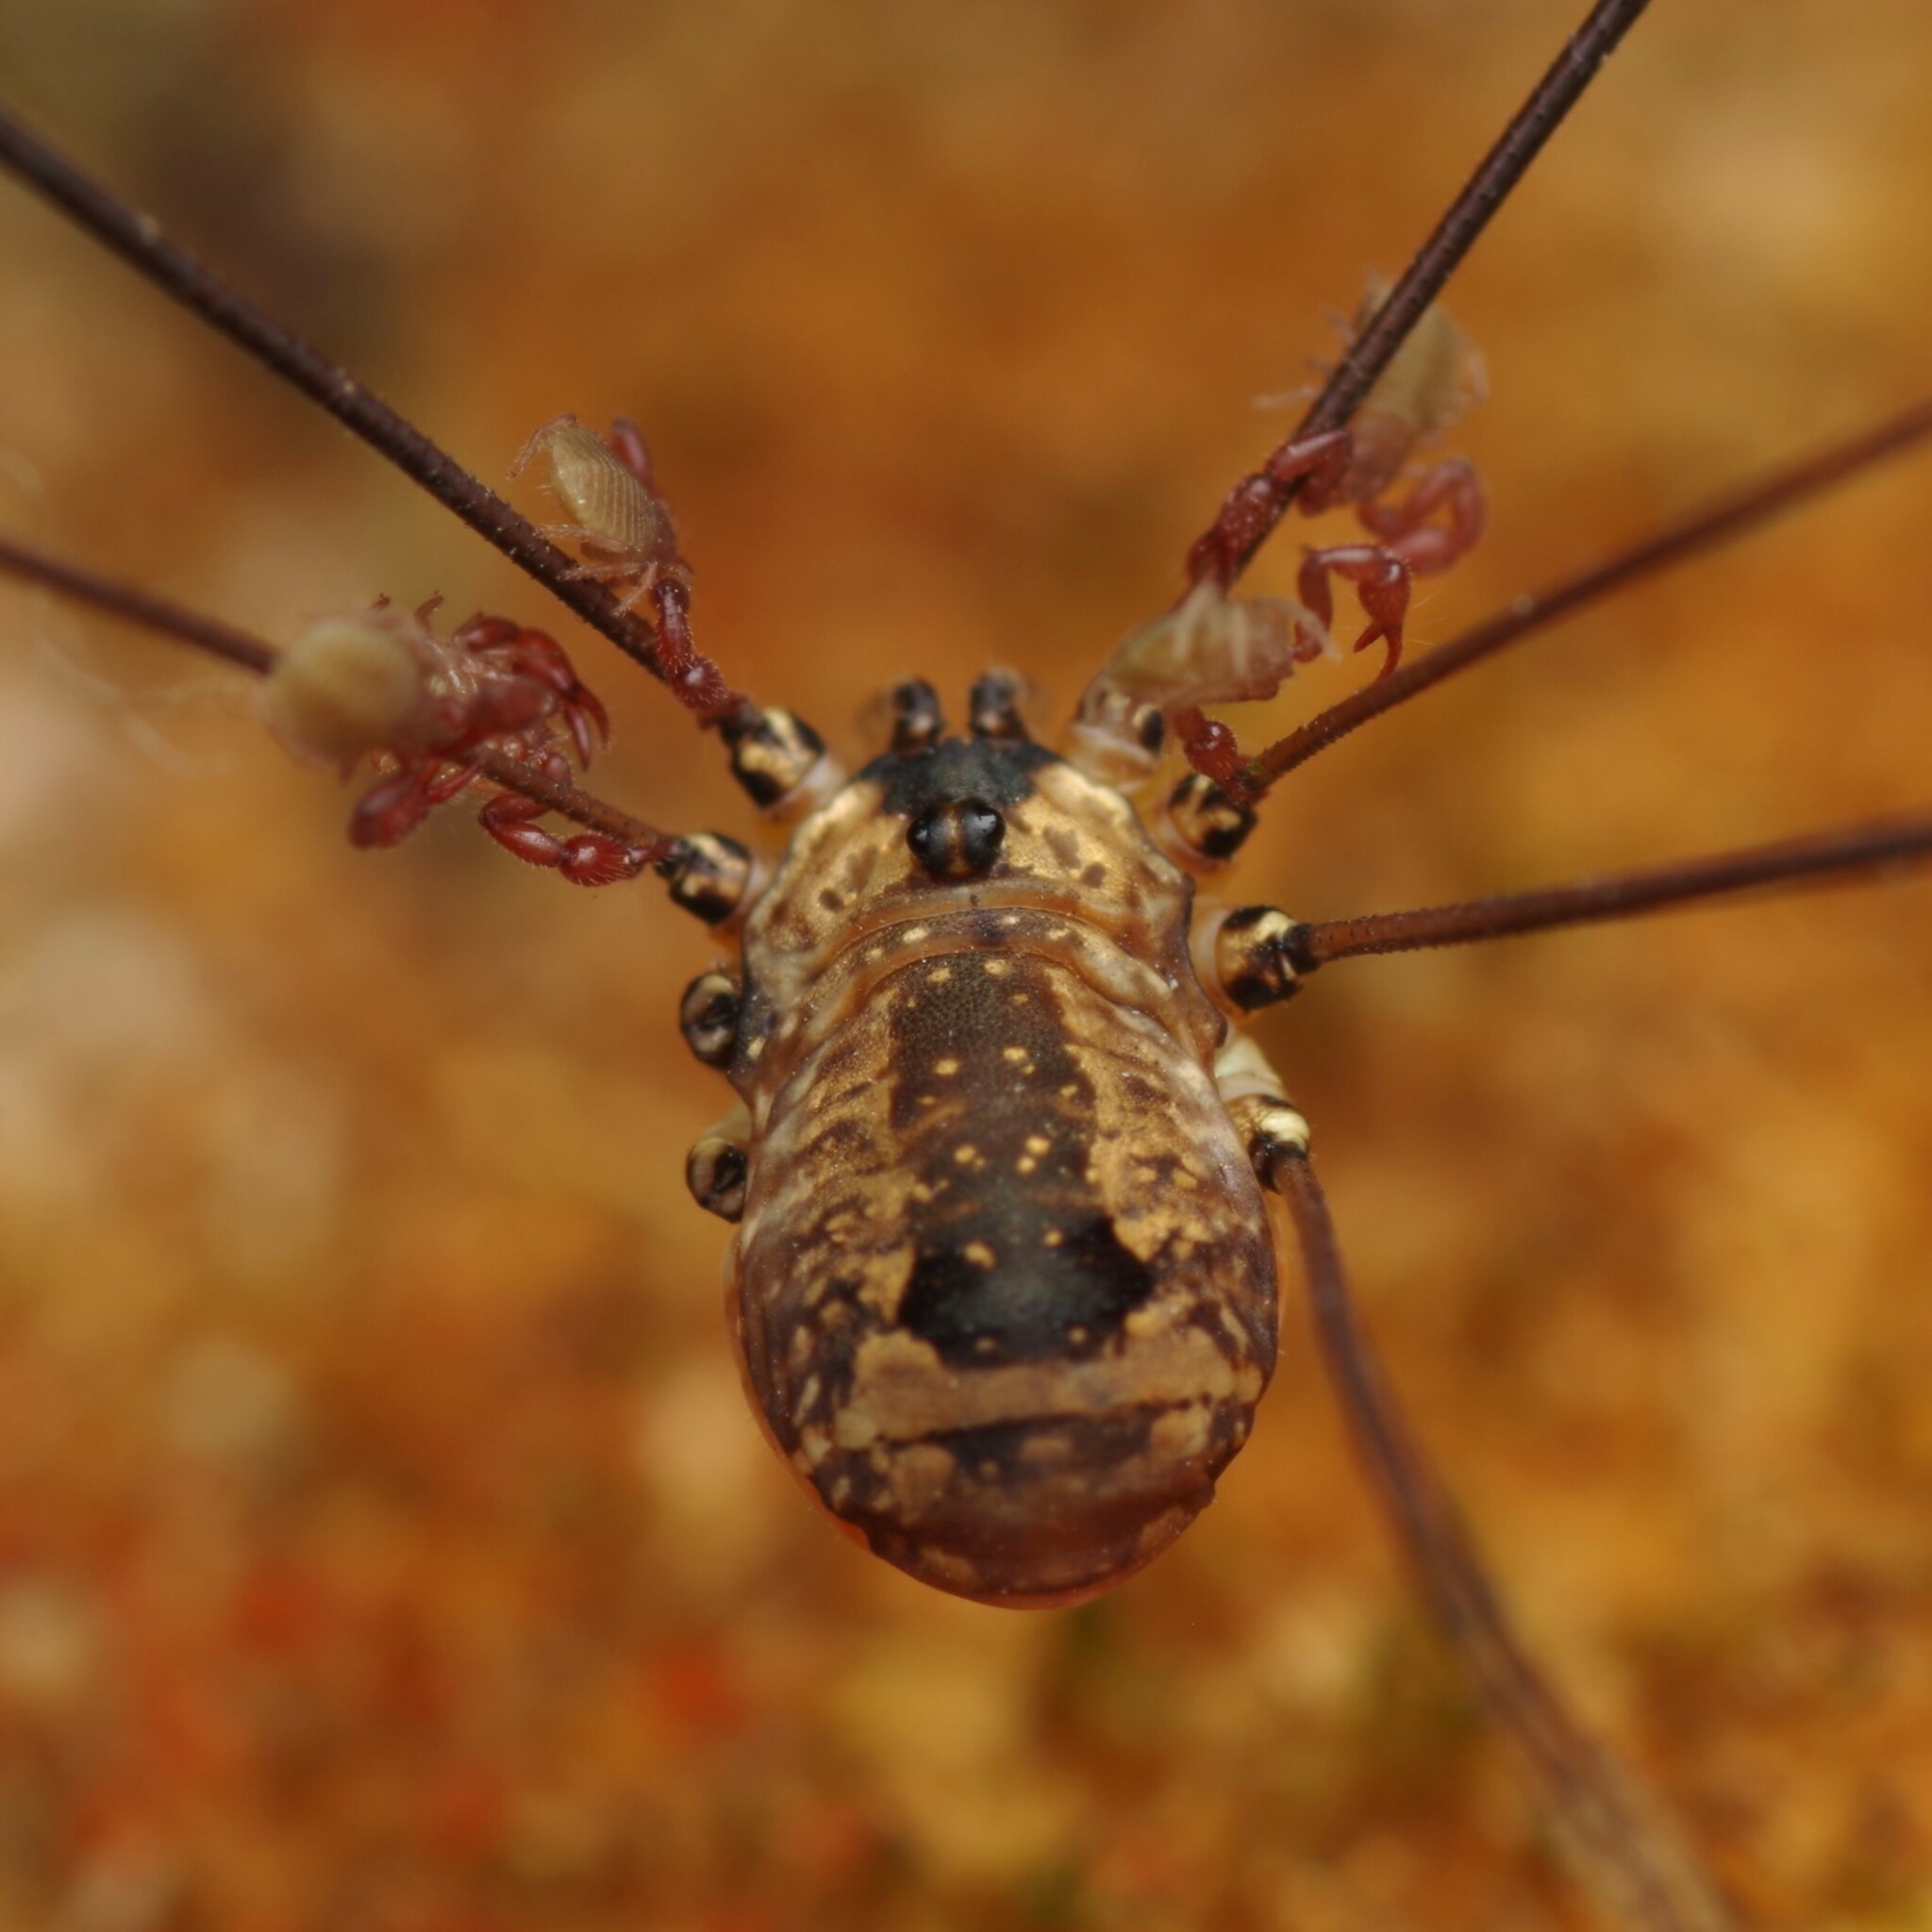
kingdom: Animalia
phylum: Arthropoda
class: Arachnida
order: Opiliones
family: Sclerosomatidae
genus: Leiobunum
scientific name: Leiobunum rotundum
